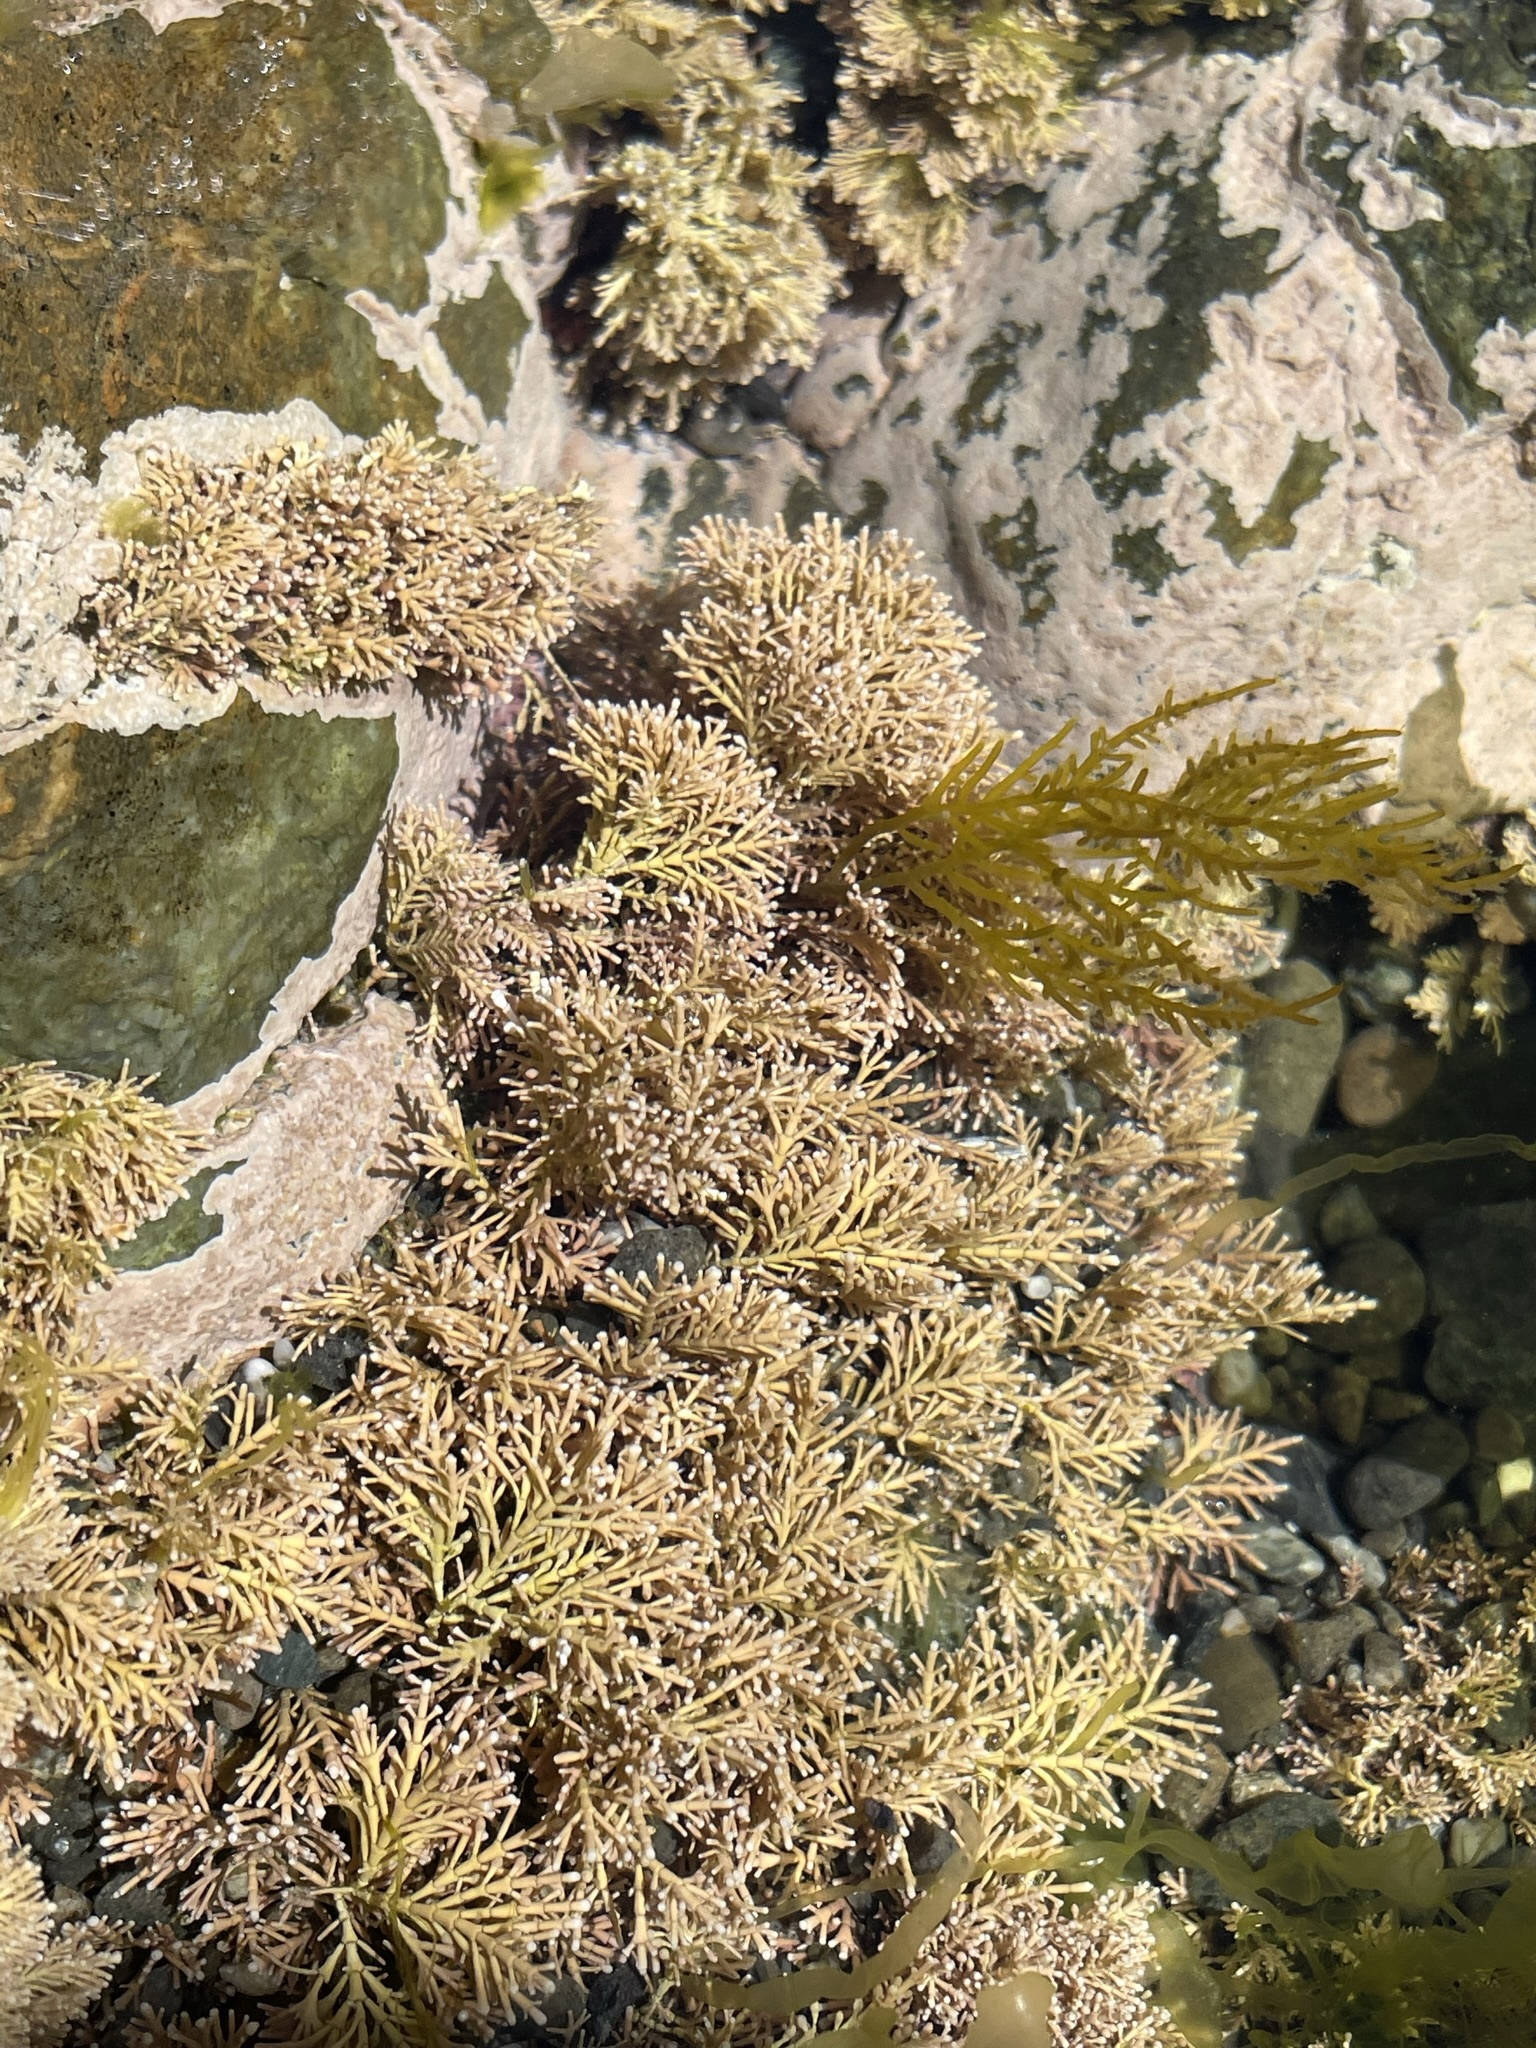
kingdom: Plantae
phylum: Rhodophyta
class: Florideophyceae
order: Corallinales
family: Corallinaceae
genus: Corallina
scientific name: Corallina officinalis
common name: Coral weed
